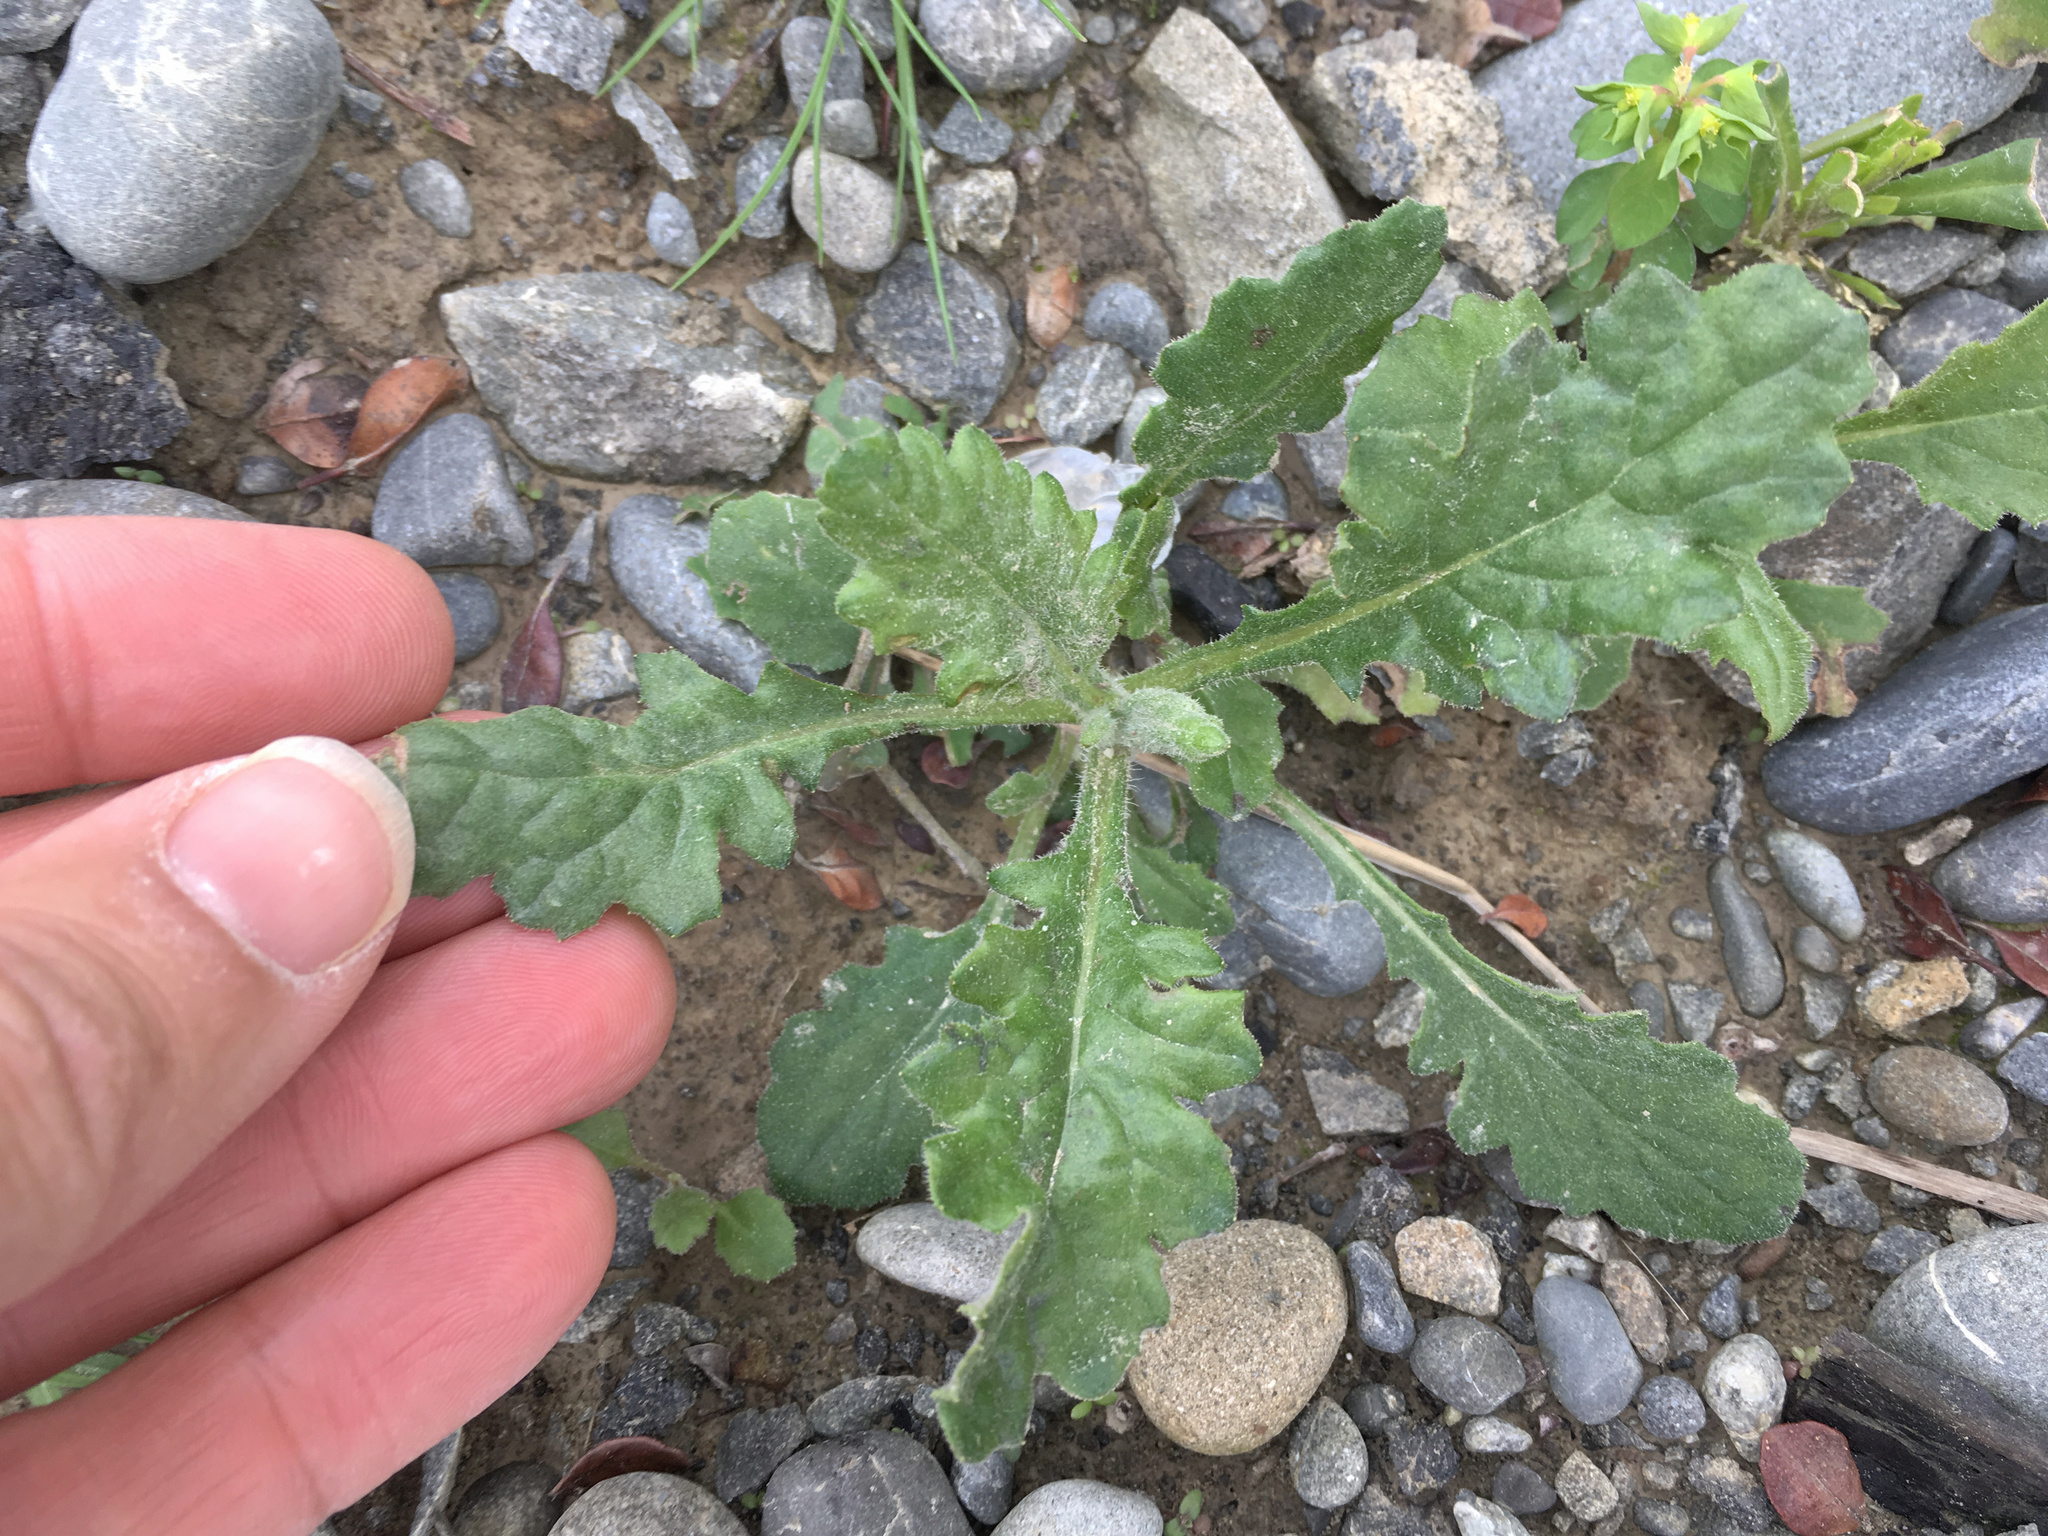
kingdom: Plantae
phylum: Tracheophyta
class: Magnoliopsida
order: Asterales
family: Asteraceae
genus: Senecio
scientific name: Senecio glomeratus
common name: Cutleaf burnweed
